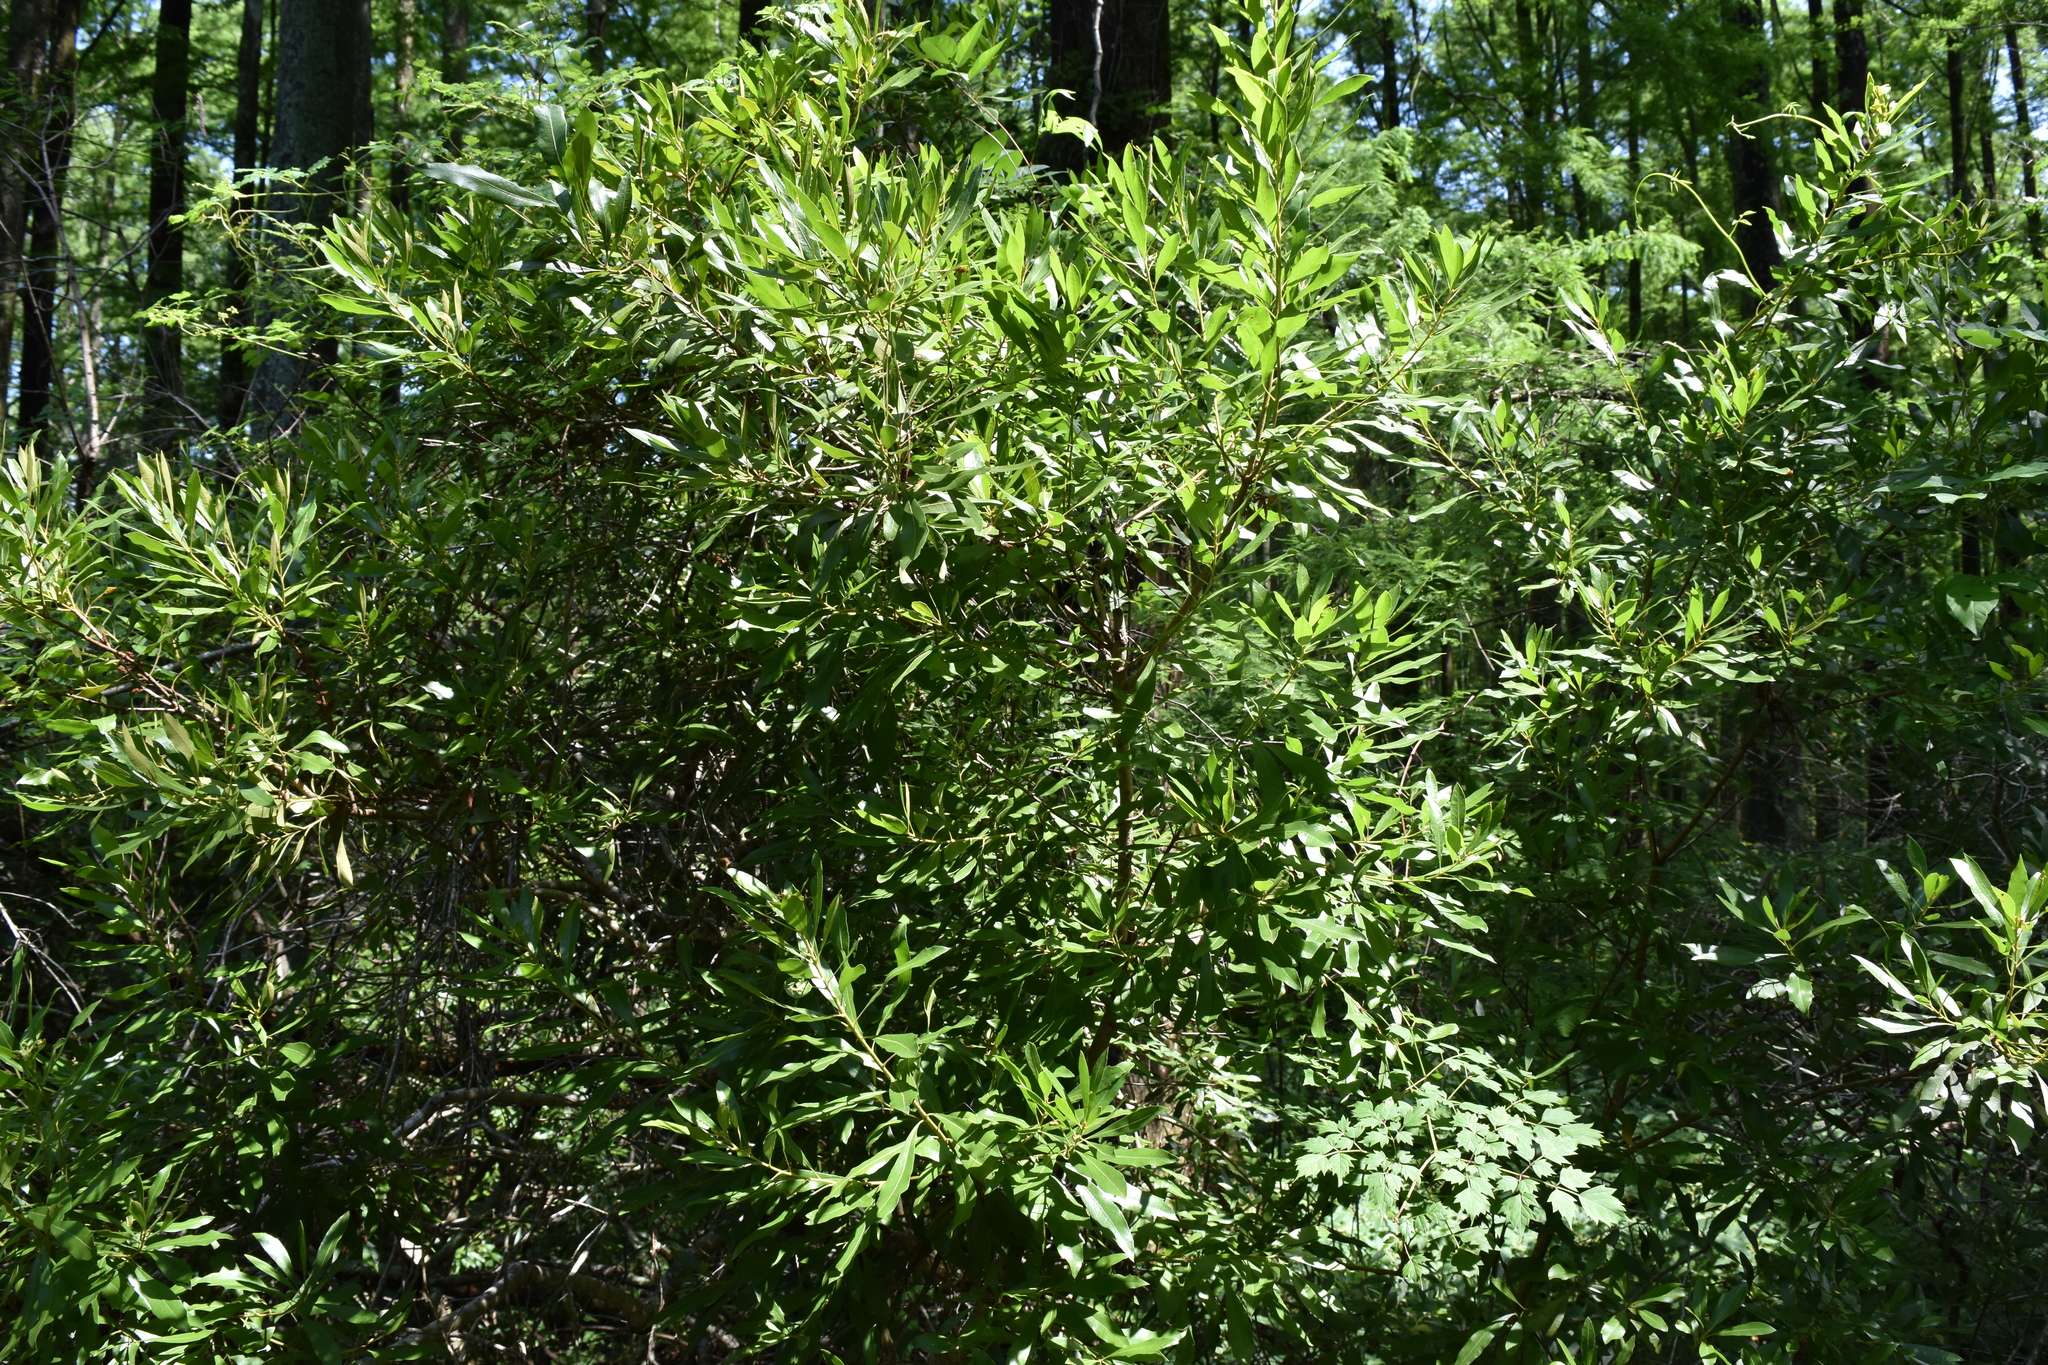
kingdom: Plantae
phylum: Tracheophyta
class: Magnoliopsida
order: Fagales
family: Myricaceae
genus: Morella
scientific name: Morella cerifera
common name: Wax myrtle
